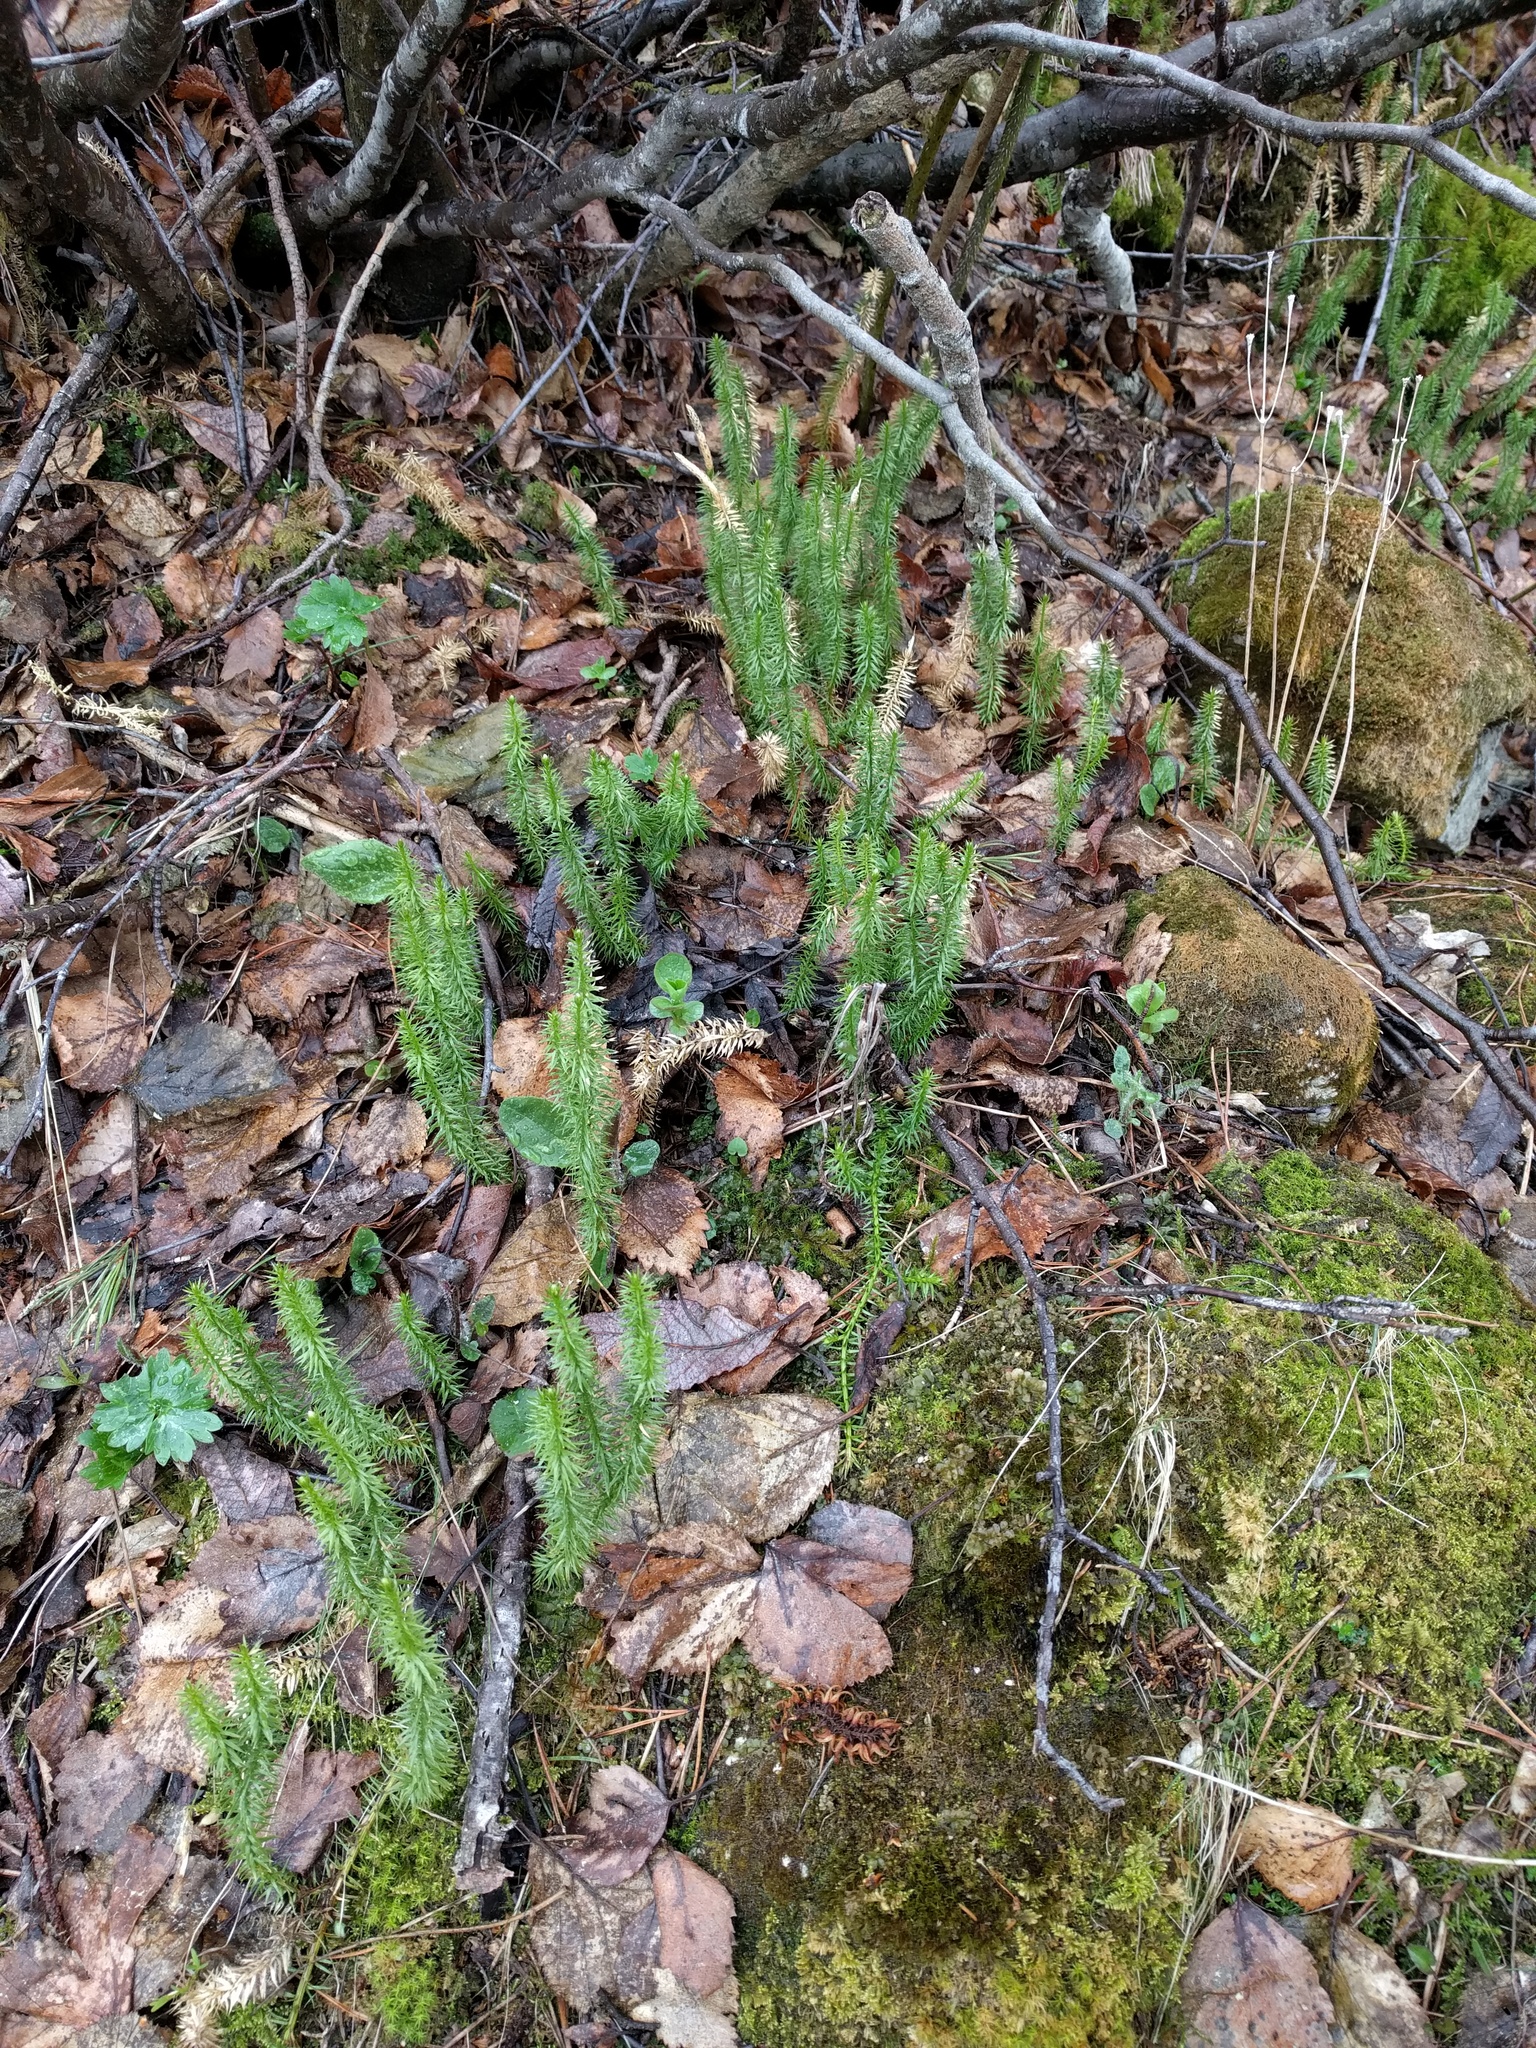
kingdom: Plantae
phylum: Tracheophyta
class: Lycopodiopsida
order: Lycopodiales
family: Lycopodiaceae
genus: Spinulum
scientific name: Spinulum annotinum
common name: Interrupted club-moss
